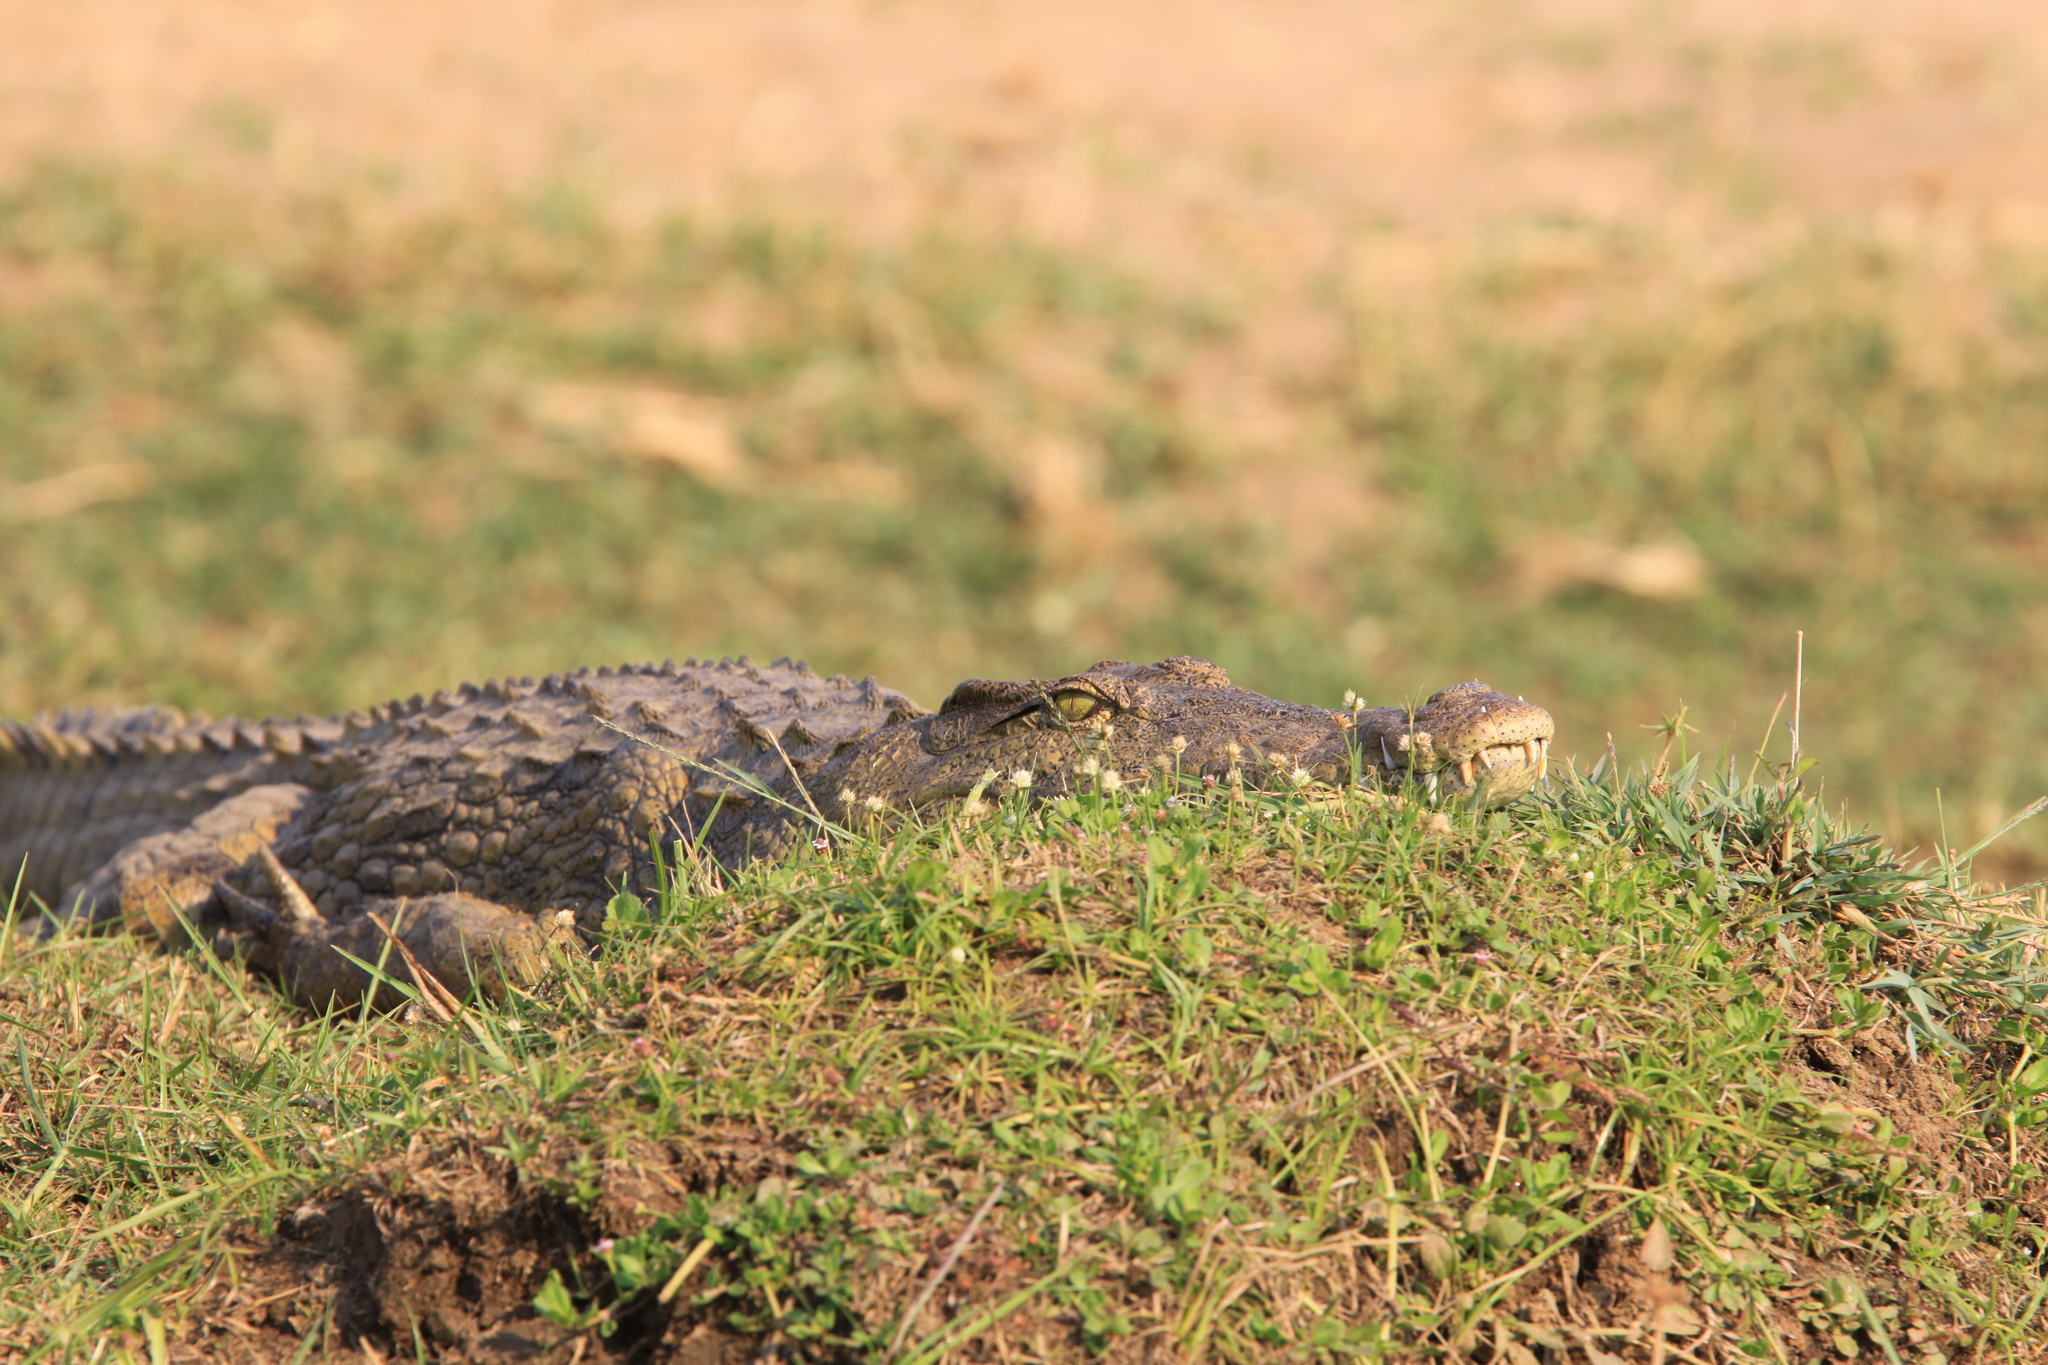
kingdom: Animalia
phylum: Chordata
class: Crocodylia
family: Crocodylidae
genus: Crocodylus
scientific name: Crocodylus niloticus
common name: Nile crocodile
